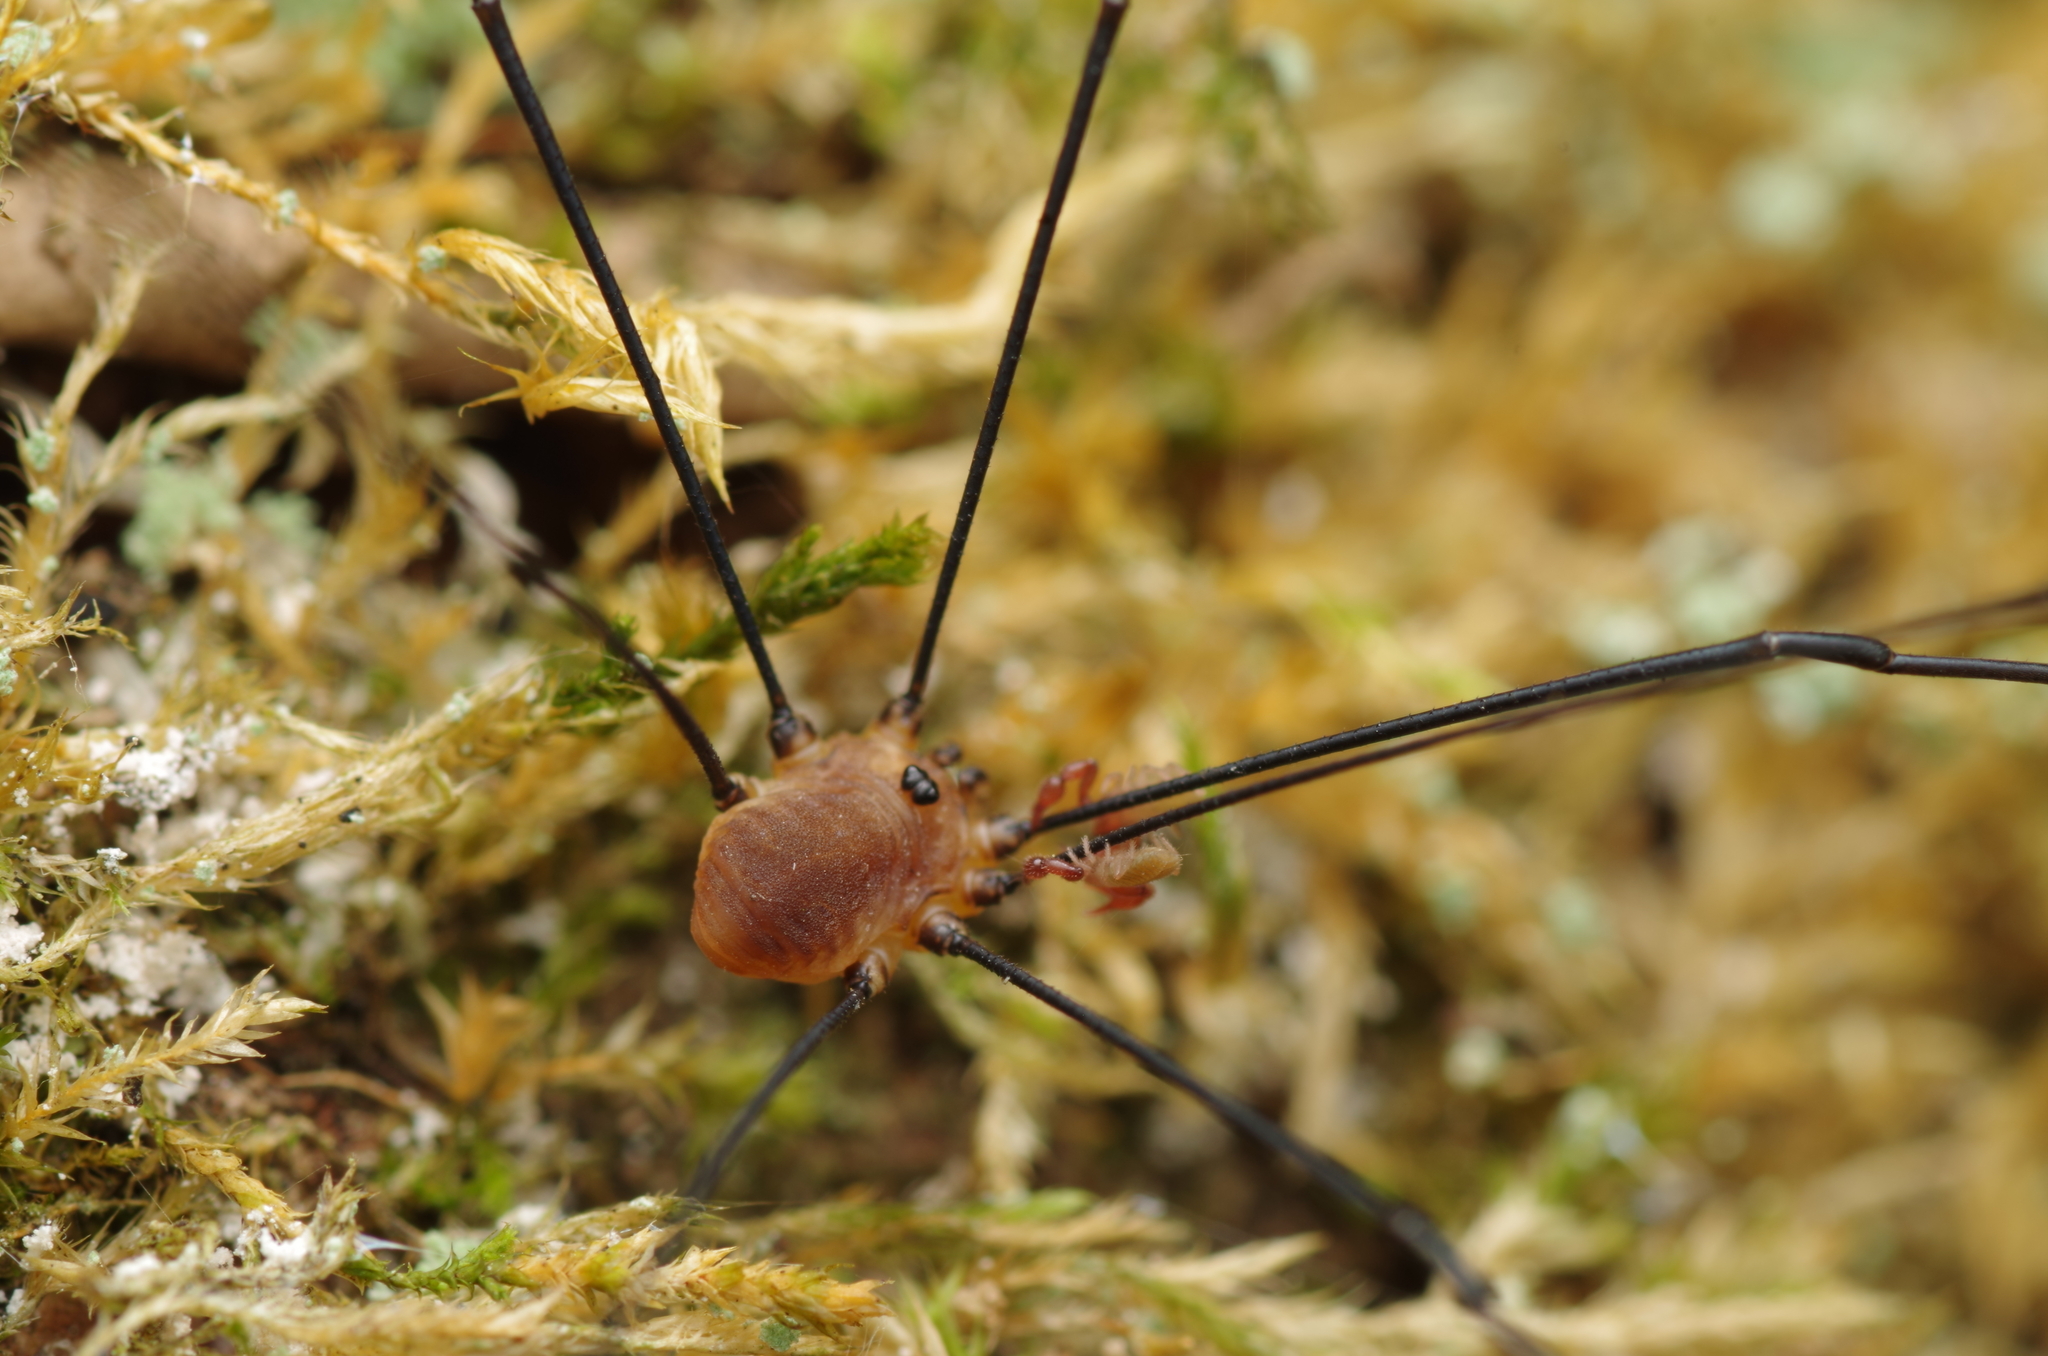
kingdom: Animalia
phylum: Arthropoda
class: Arachnida
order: Opiliones
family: Sclerosomatidae
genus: Leiobunum
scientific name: Leiobunum rotundum
